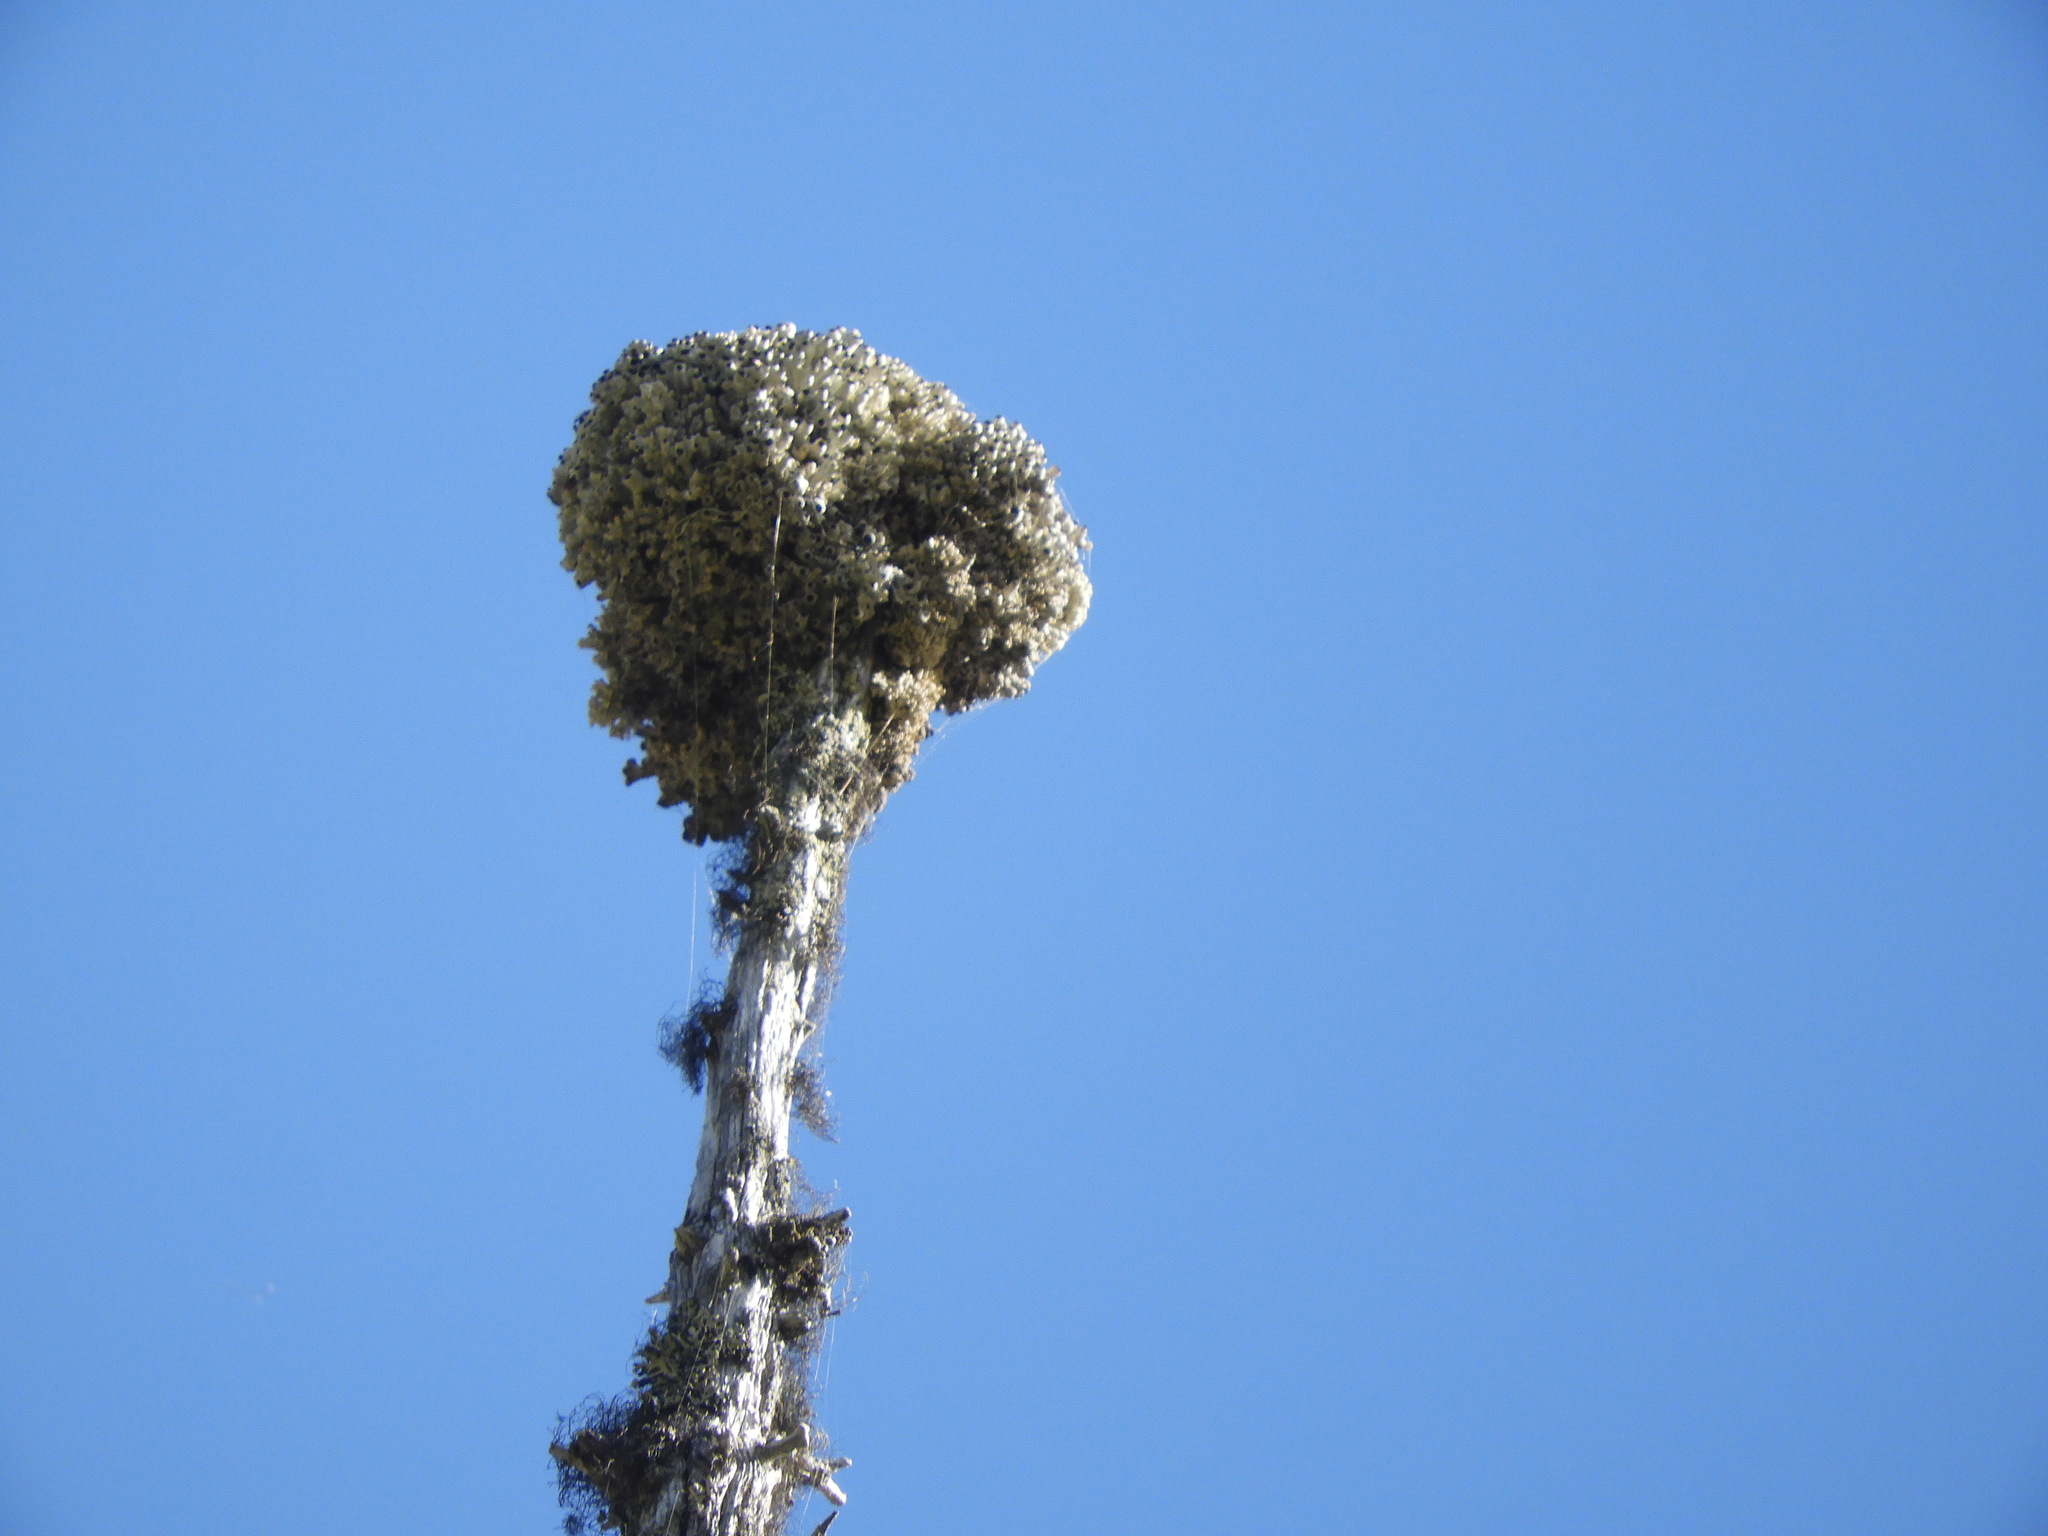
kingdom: Fungi
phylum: Ascomycota
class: Lecanoromycetes
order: Caliciales
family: Caliciaceae
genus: Acroscyphus
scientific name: Acroscyphus sphaerophoroides
